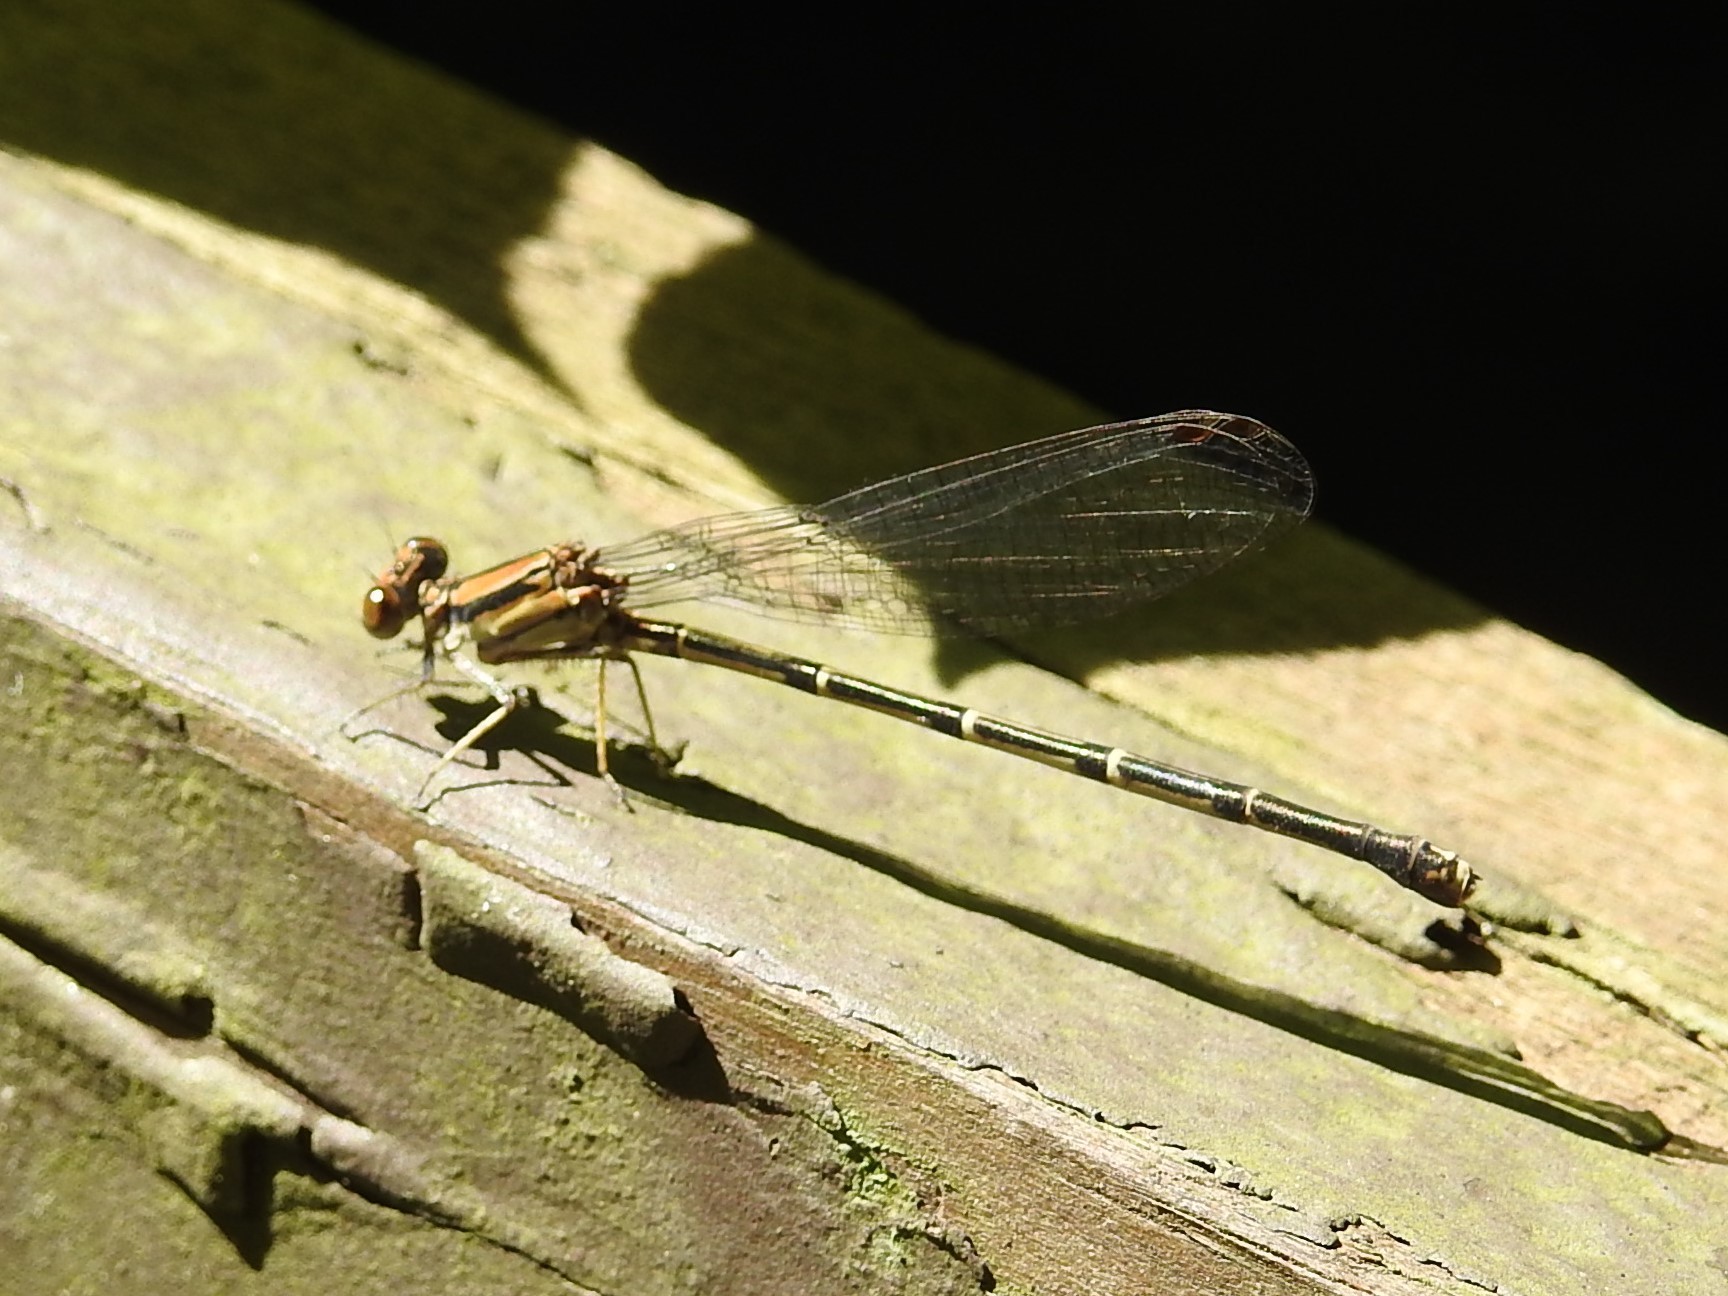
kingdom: Animalia
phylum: Arthropoda
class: Insecta
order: Odonata
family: Coenagrionidae
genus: Argia
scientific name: Argia tibialis
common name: Blue-tipped dancer
